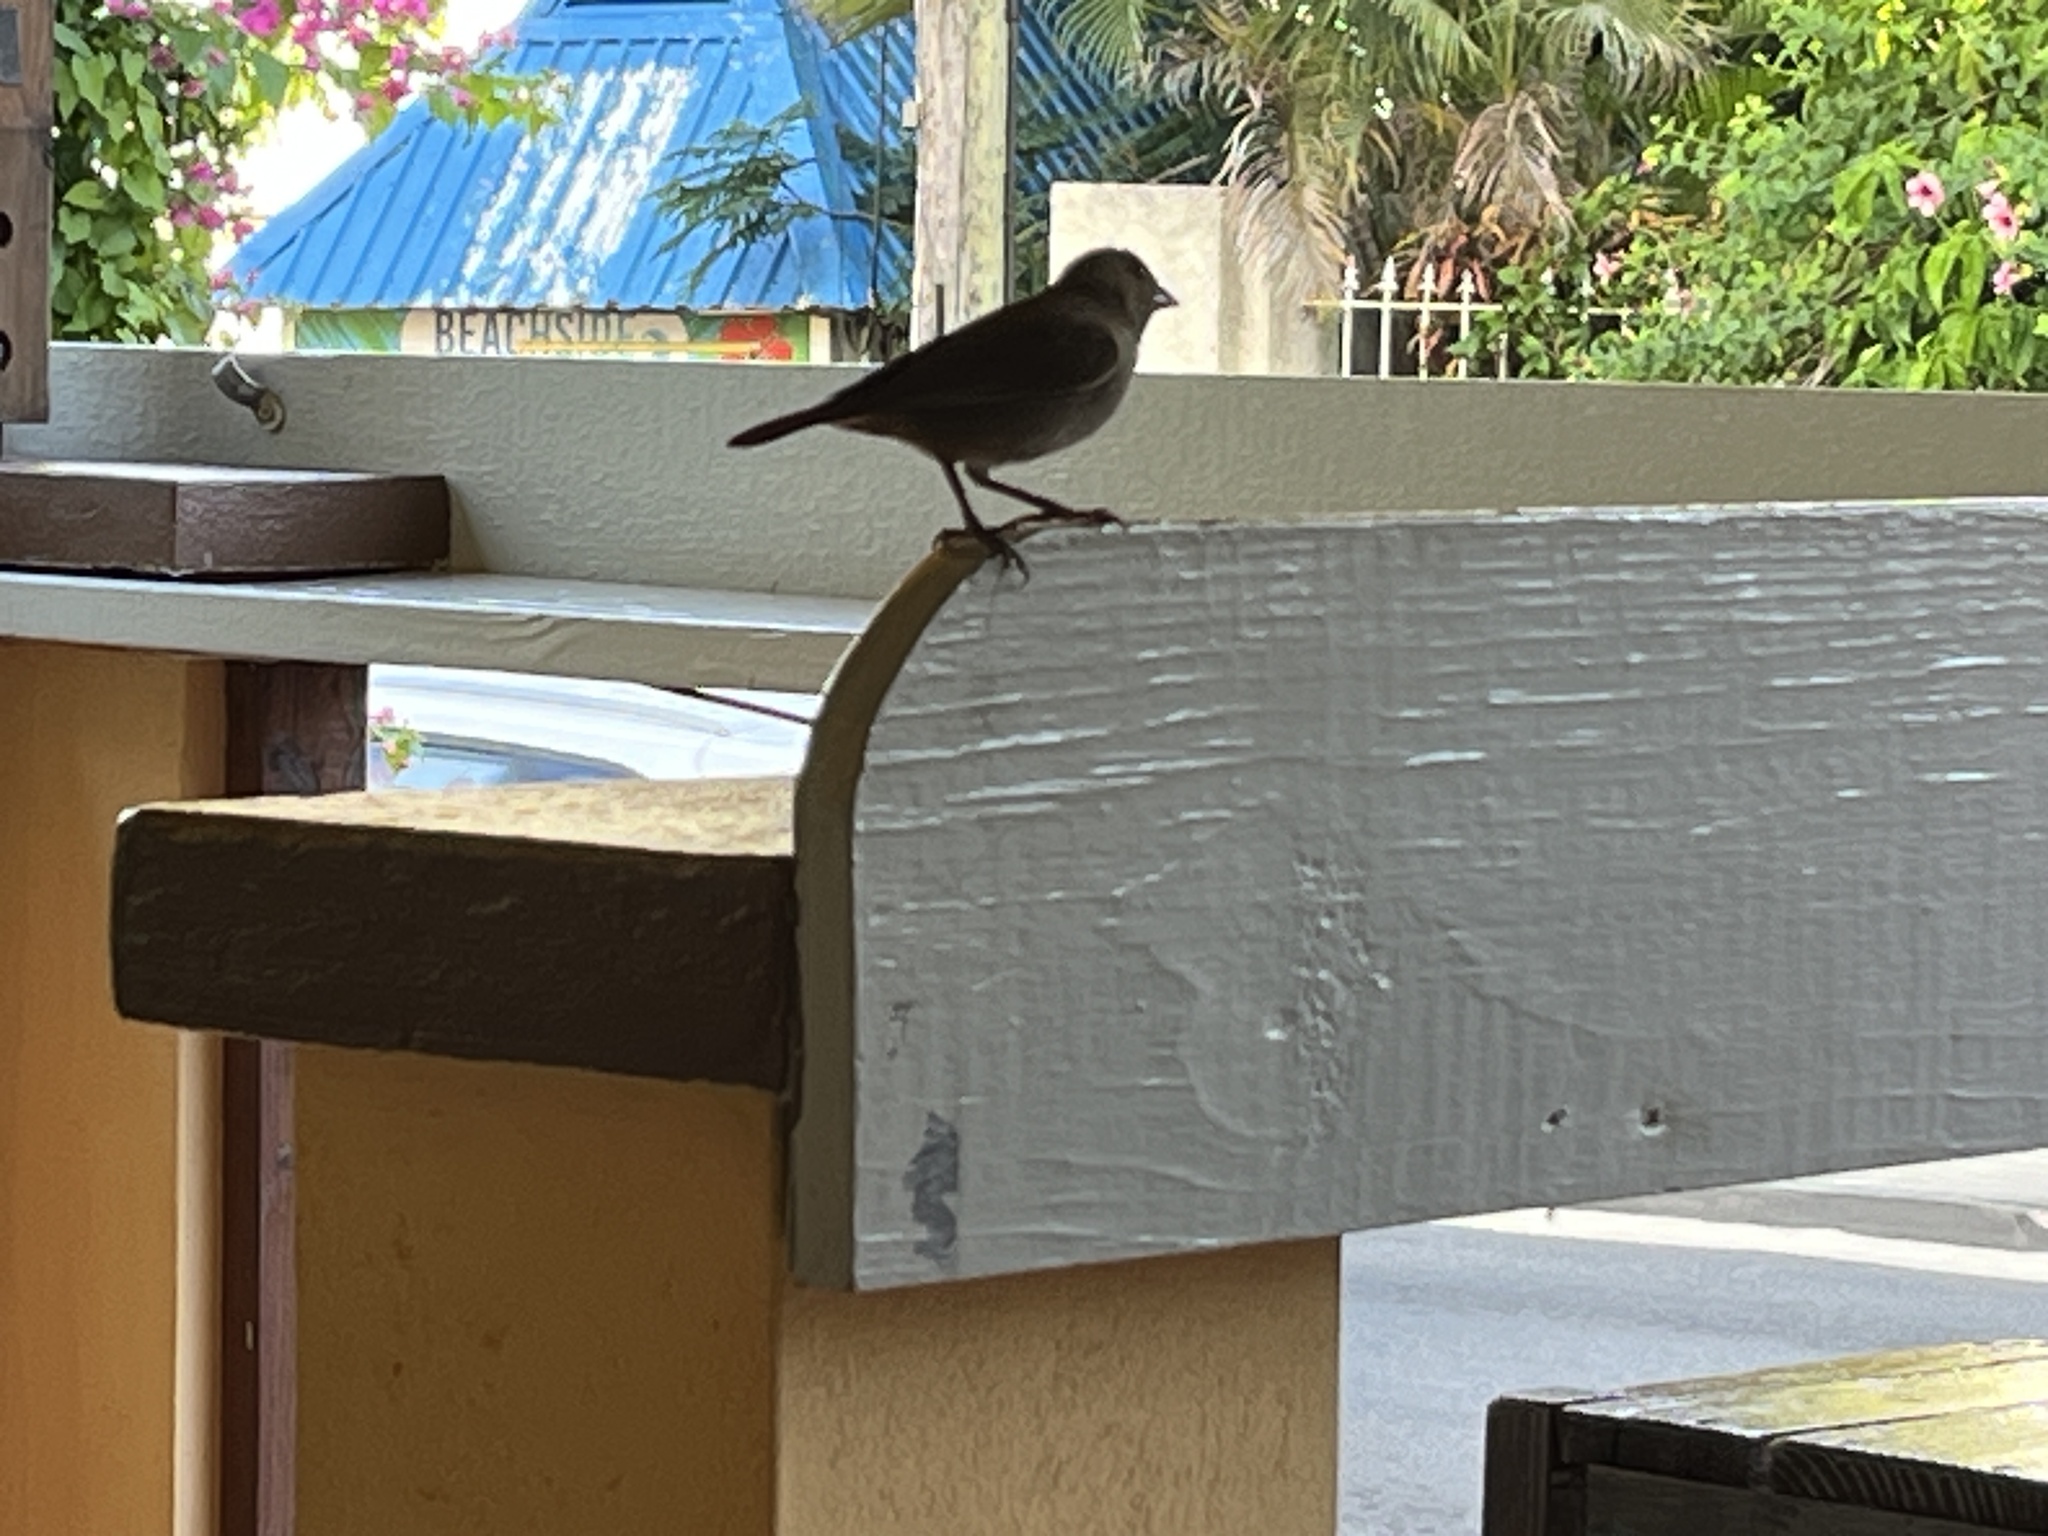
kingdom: Animalia
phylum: Chordata
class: Aves
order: Passeriformes
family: Thraupidae
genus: Loxigilla
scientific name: Loxigilla barbadensis
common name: Barbados bullfinch
